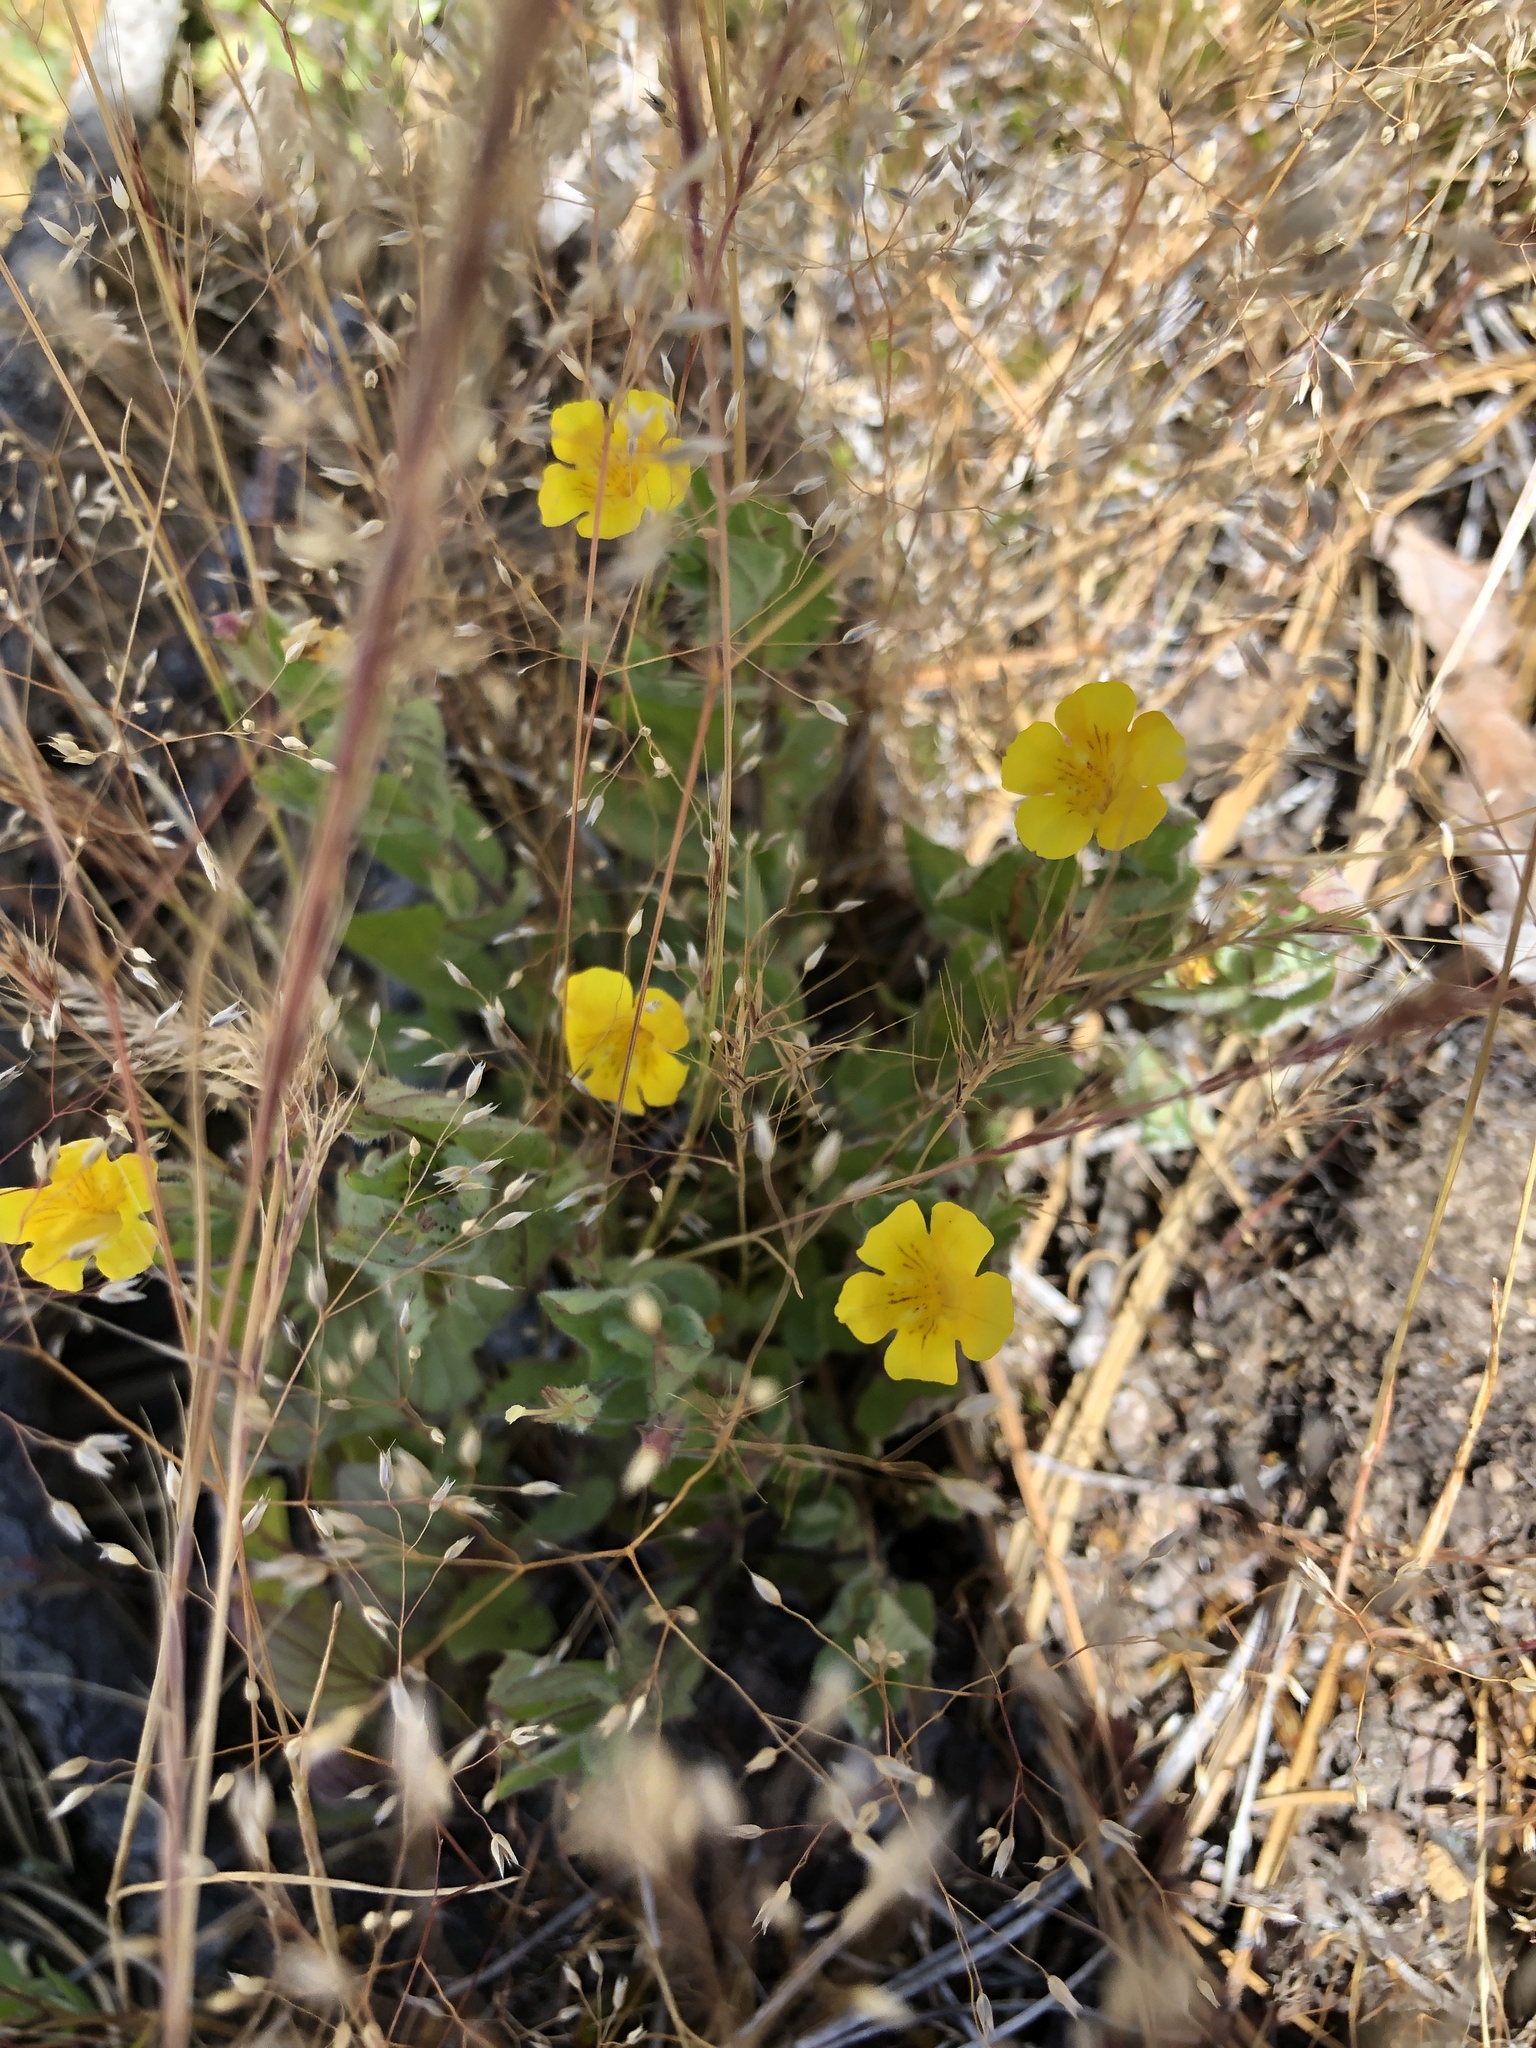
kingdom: Plantae
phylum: Tracheophyta
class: Magnoliopsida
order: Lamiales
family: Phrymaceae
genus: Erythranthe
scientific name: Erythranthe moschata
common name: Muskflower
